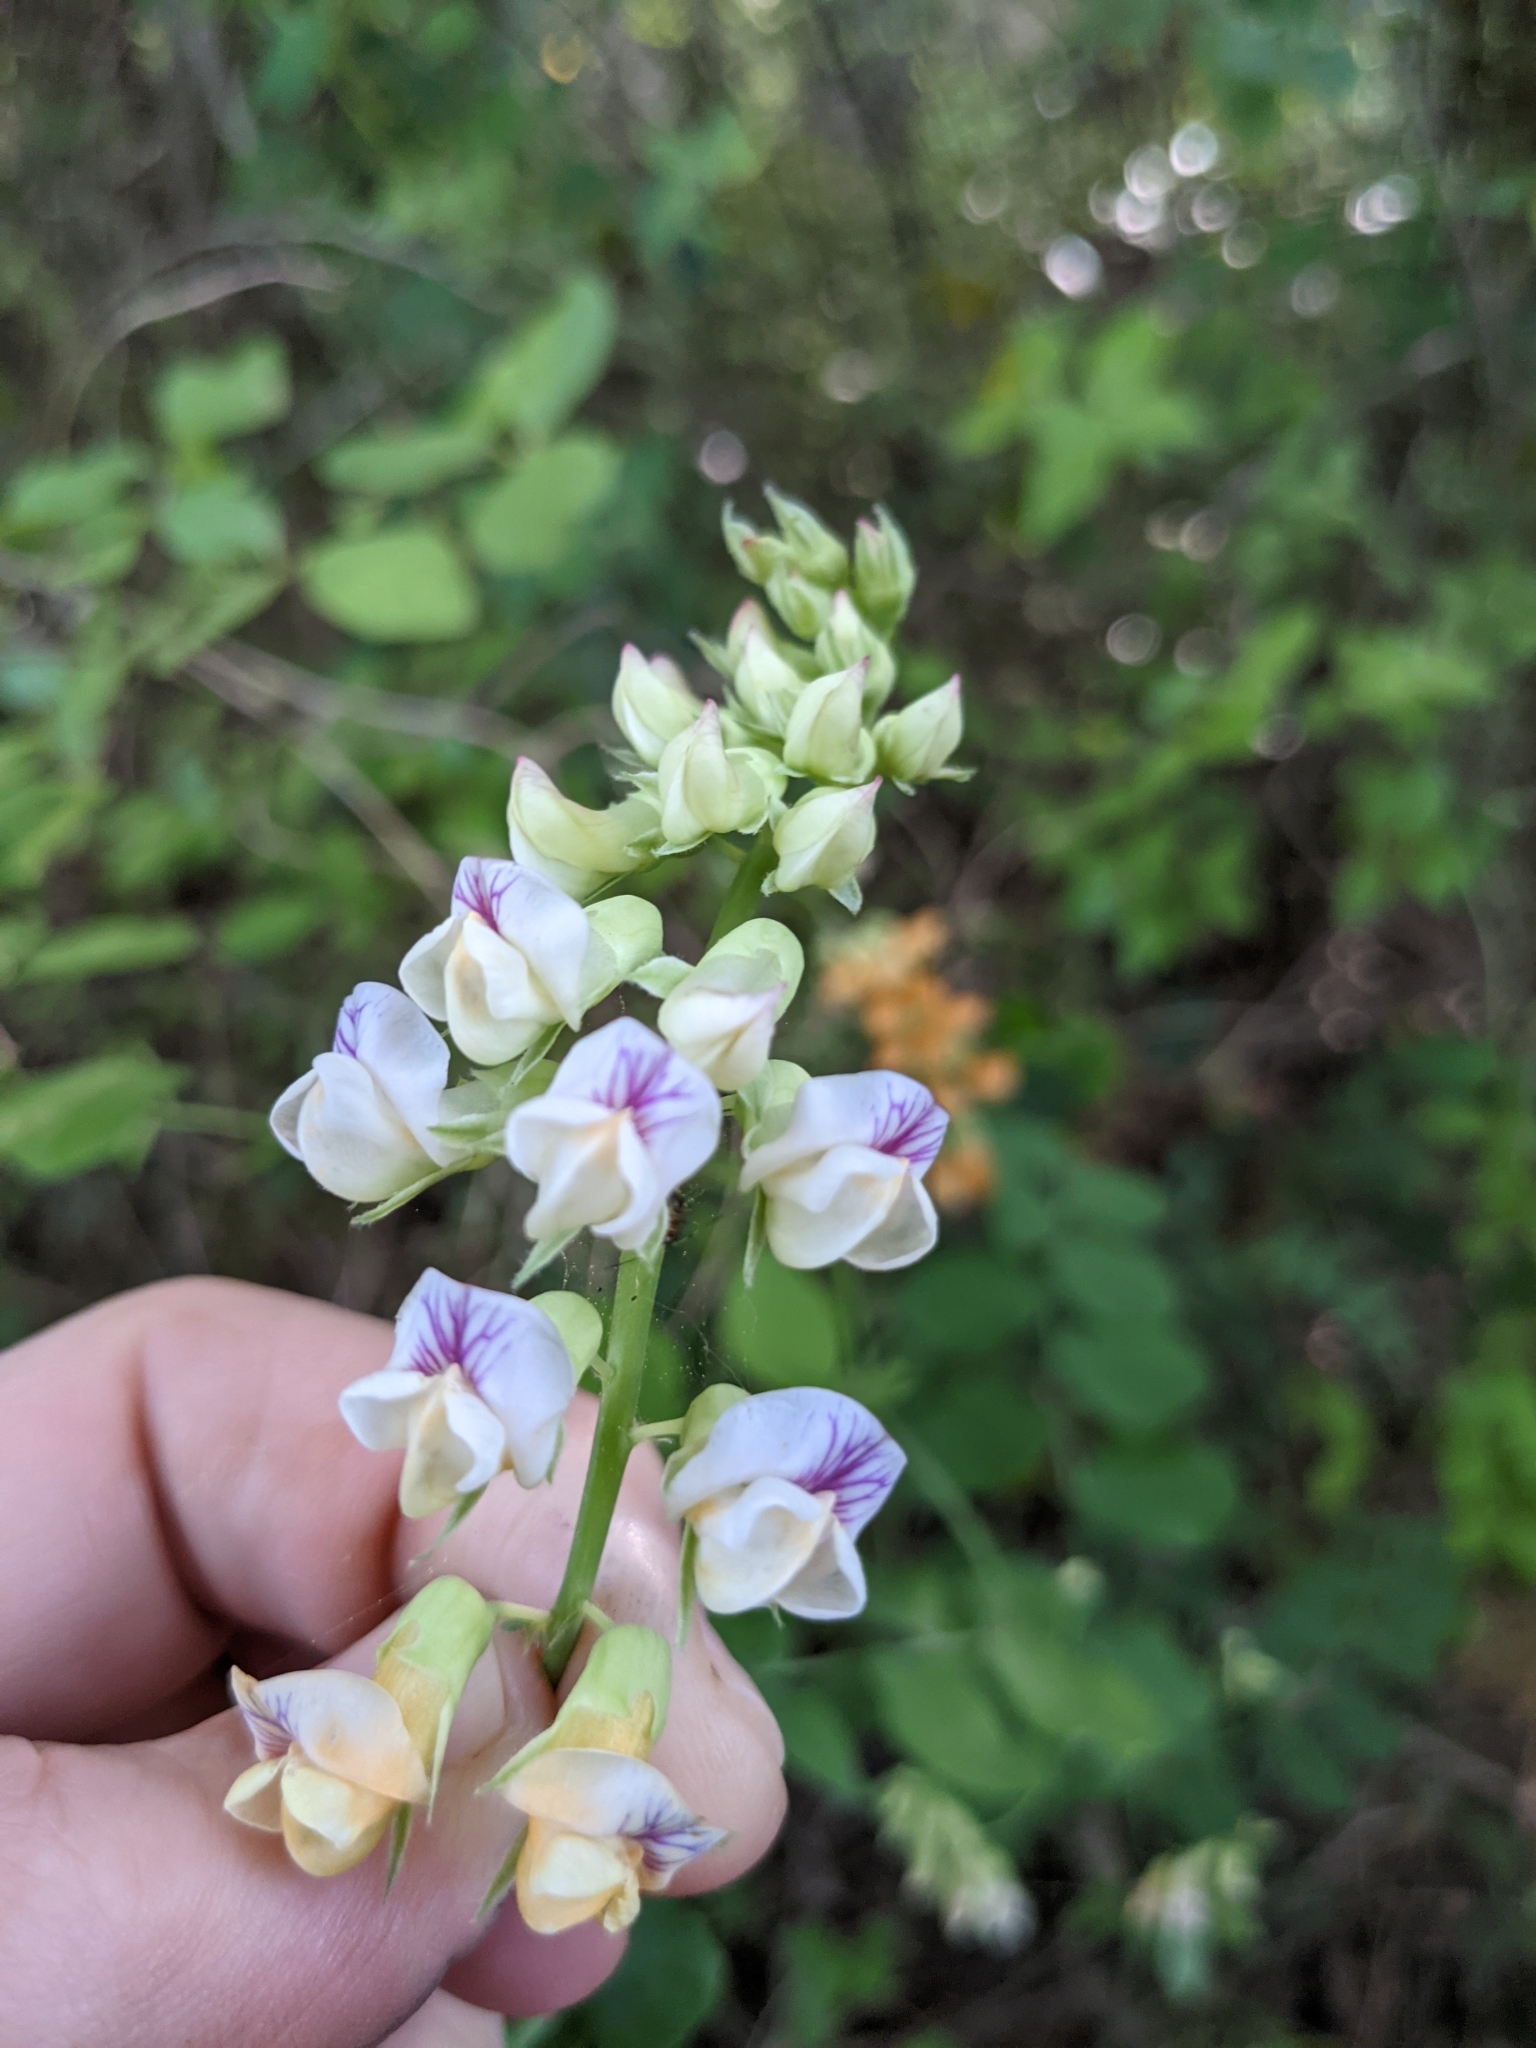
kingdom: Plantae
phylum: Tracheophyta
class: Magnoliopsida
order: Fabales
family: Fabaceae
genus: Lathyrus
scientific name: Lathyrus sulphureus
